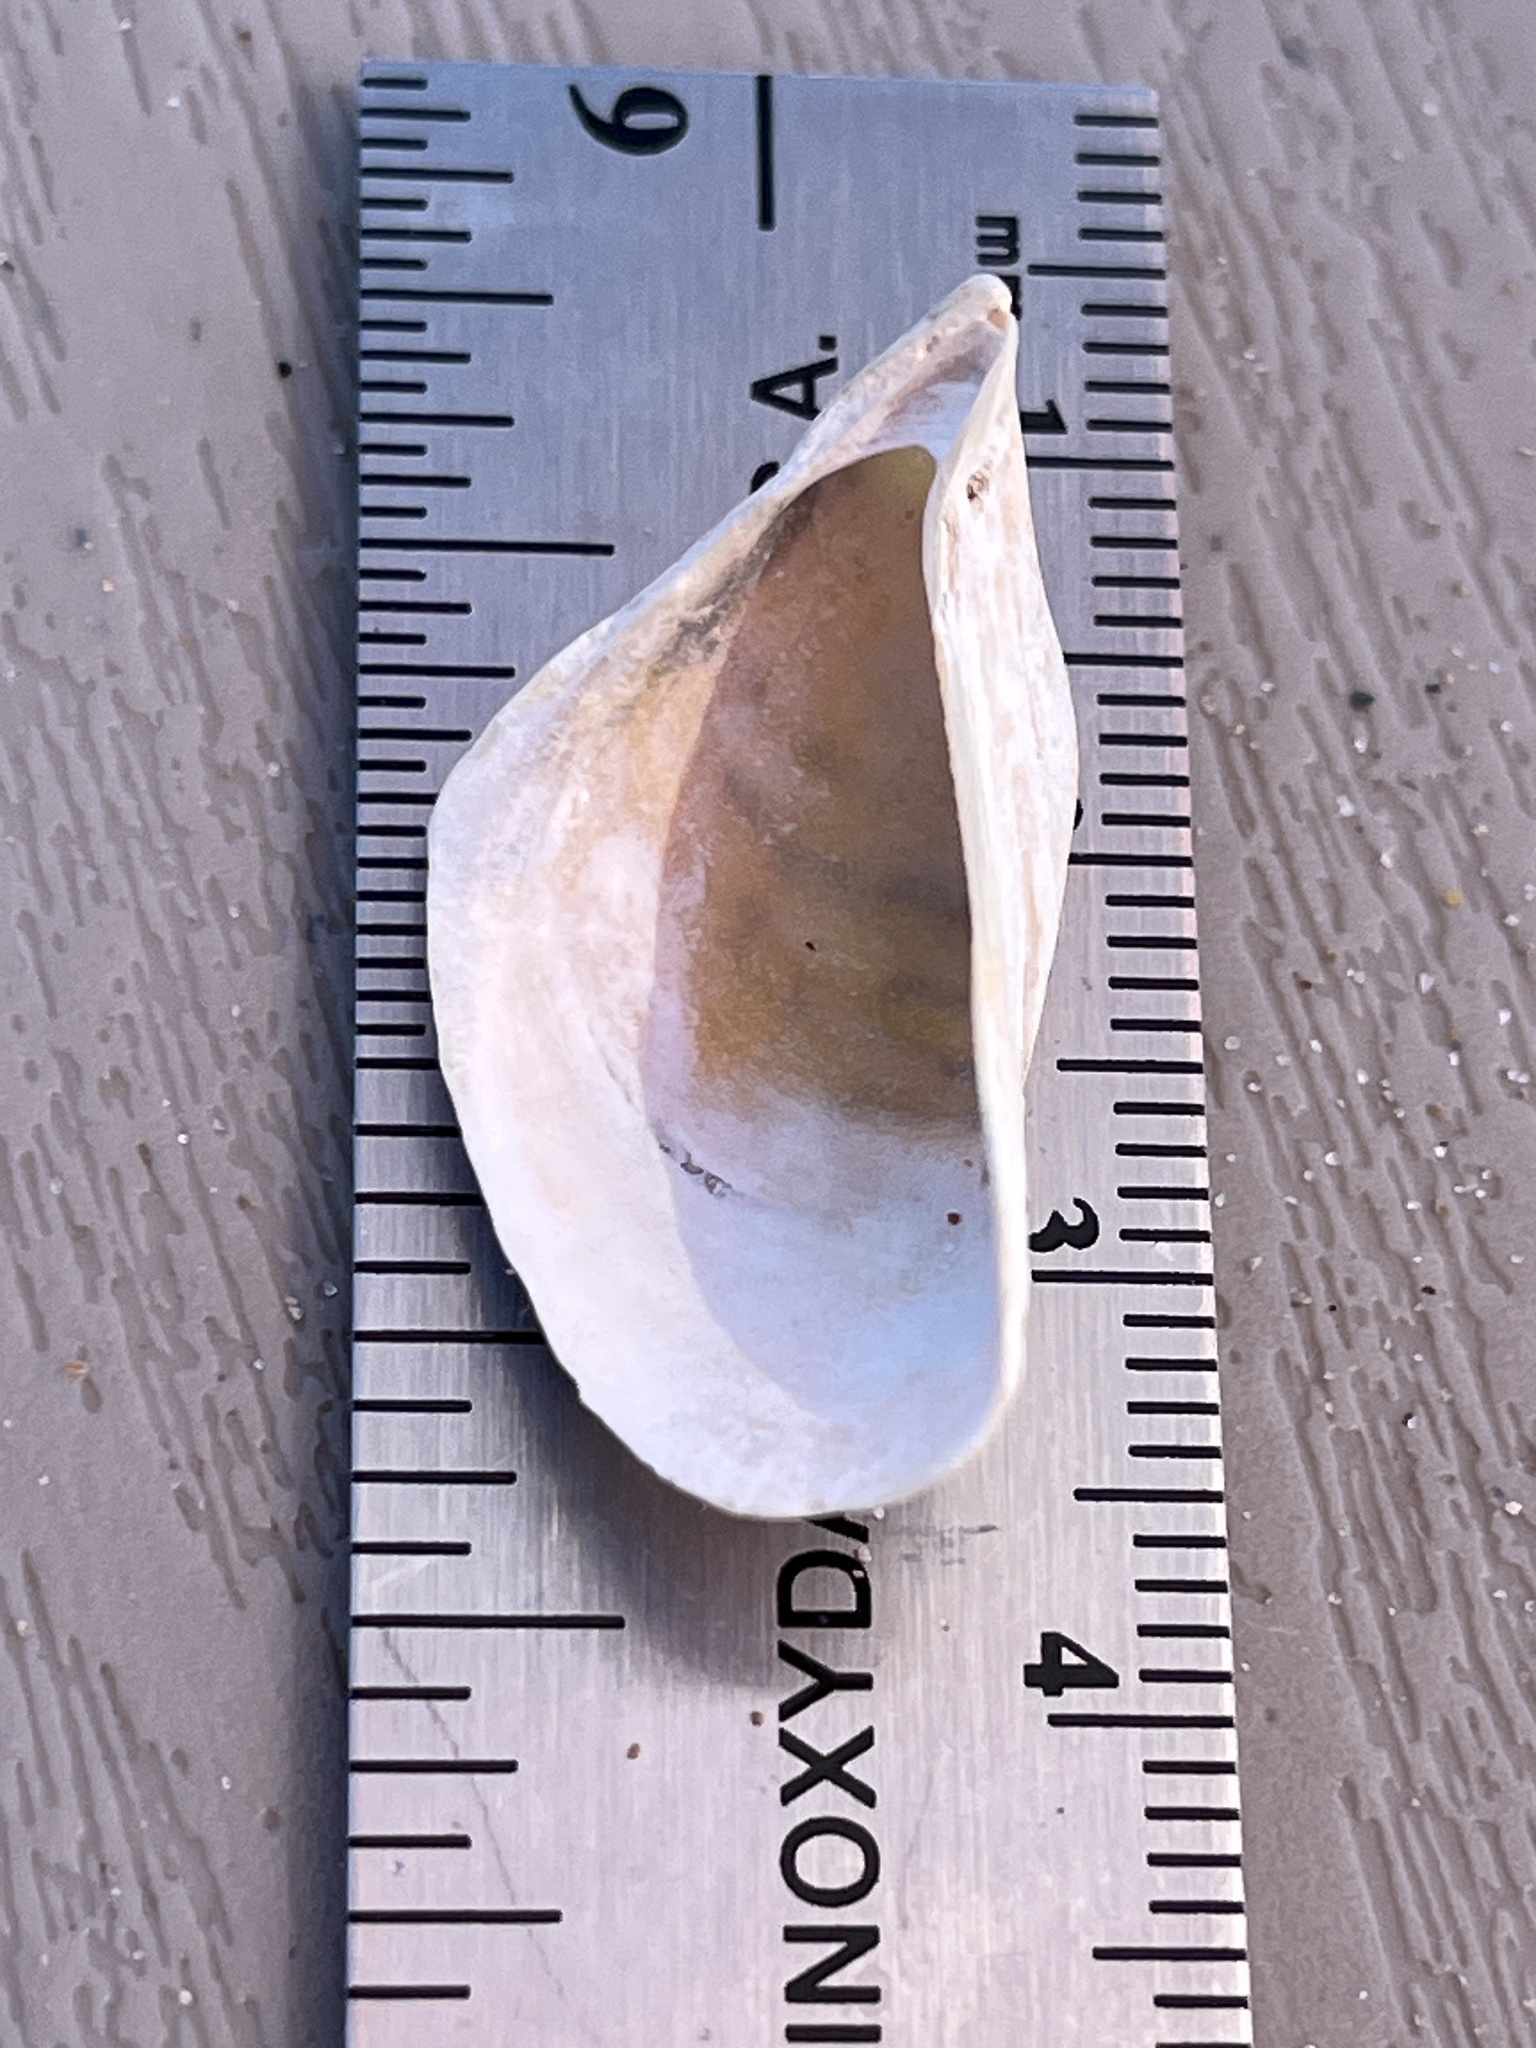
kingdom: Animalia
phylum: Mollusca
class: Bivalvia
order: Myida
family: Dreissenidae
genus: Dreissena
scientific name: Dreissena polymorpha
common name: Zebra mussel
